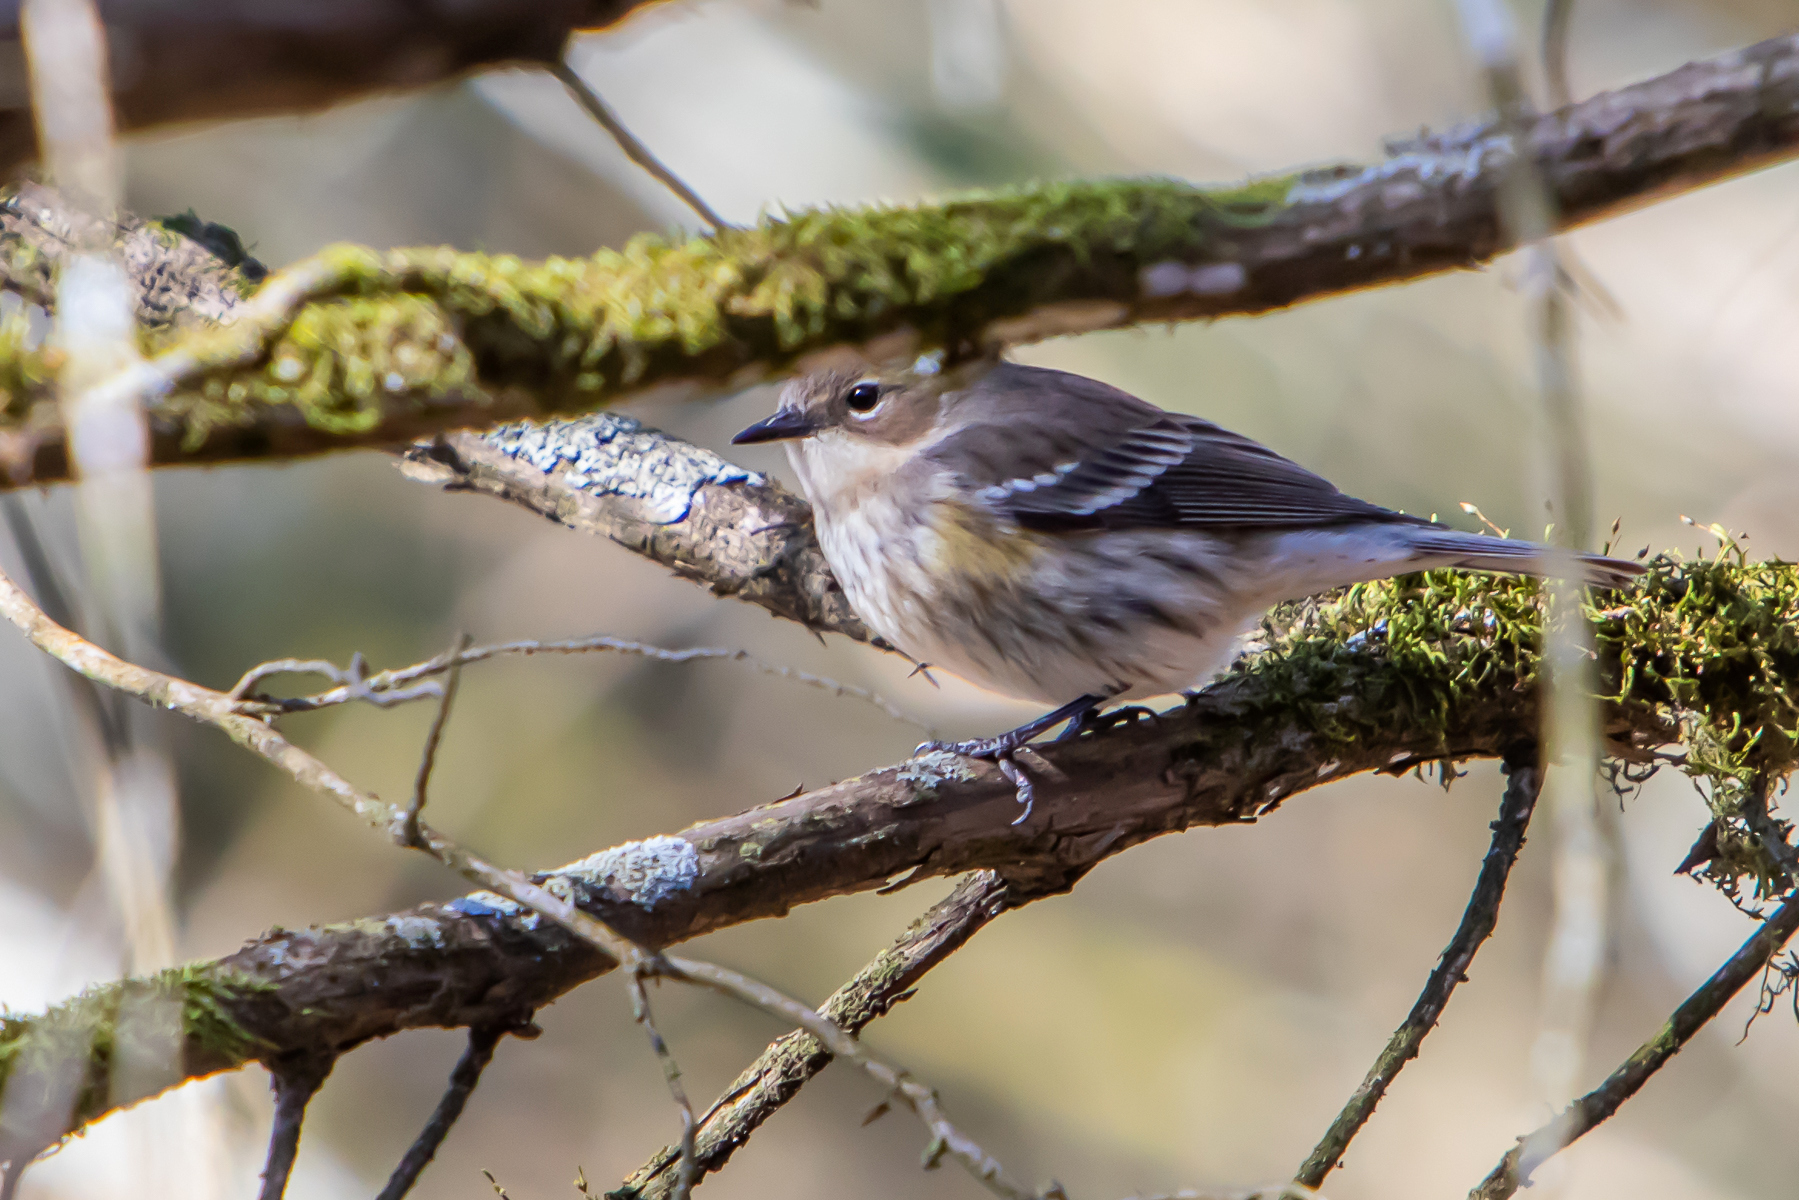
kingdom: Animalia
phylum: Chordata
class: Aves
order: Passeriformes
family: Parulidae
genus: Setophaga
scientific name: Setophaga coronata
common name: Myrtle warbler
